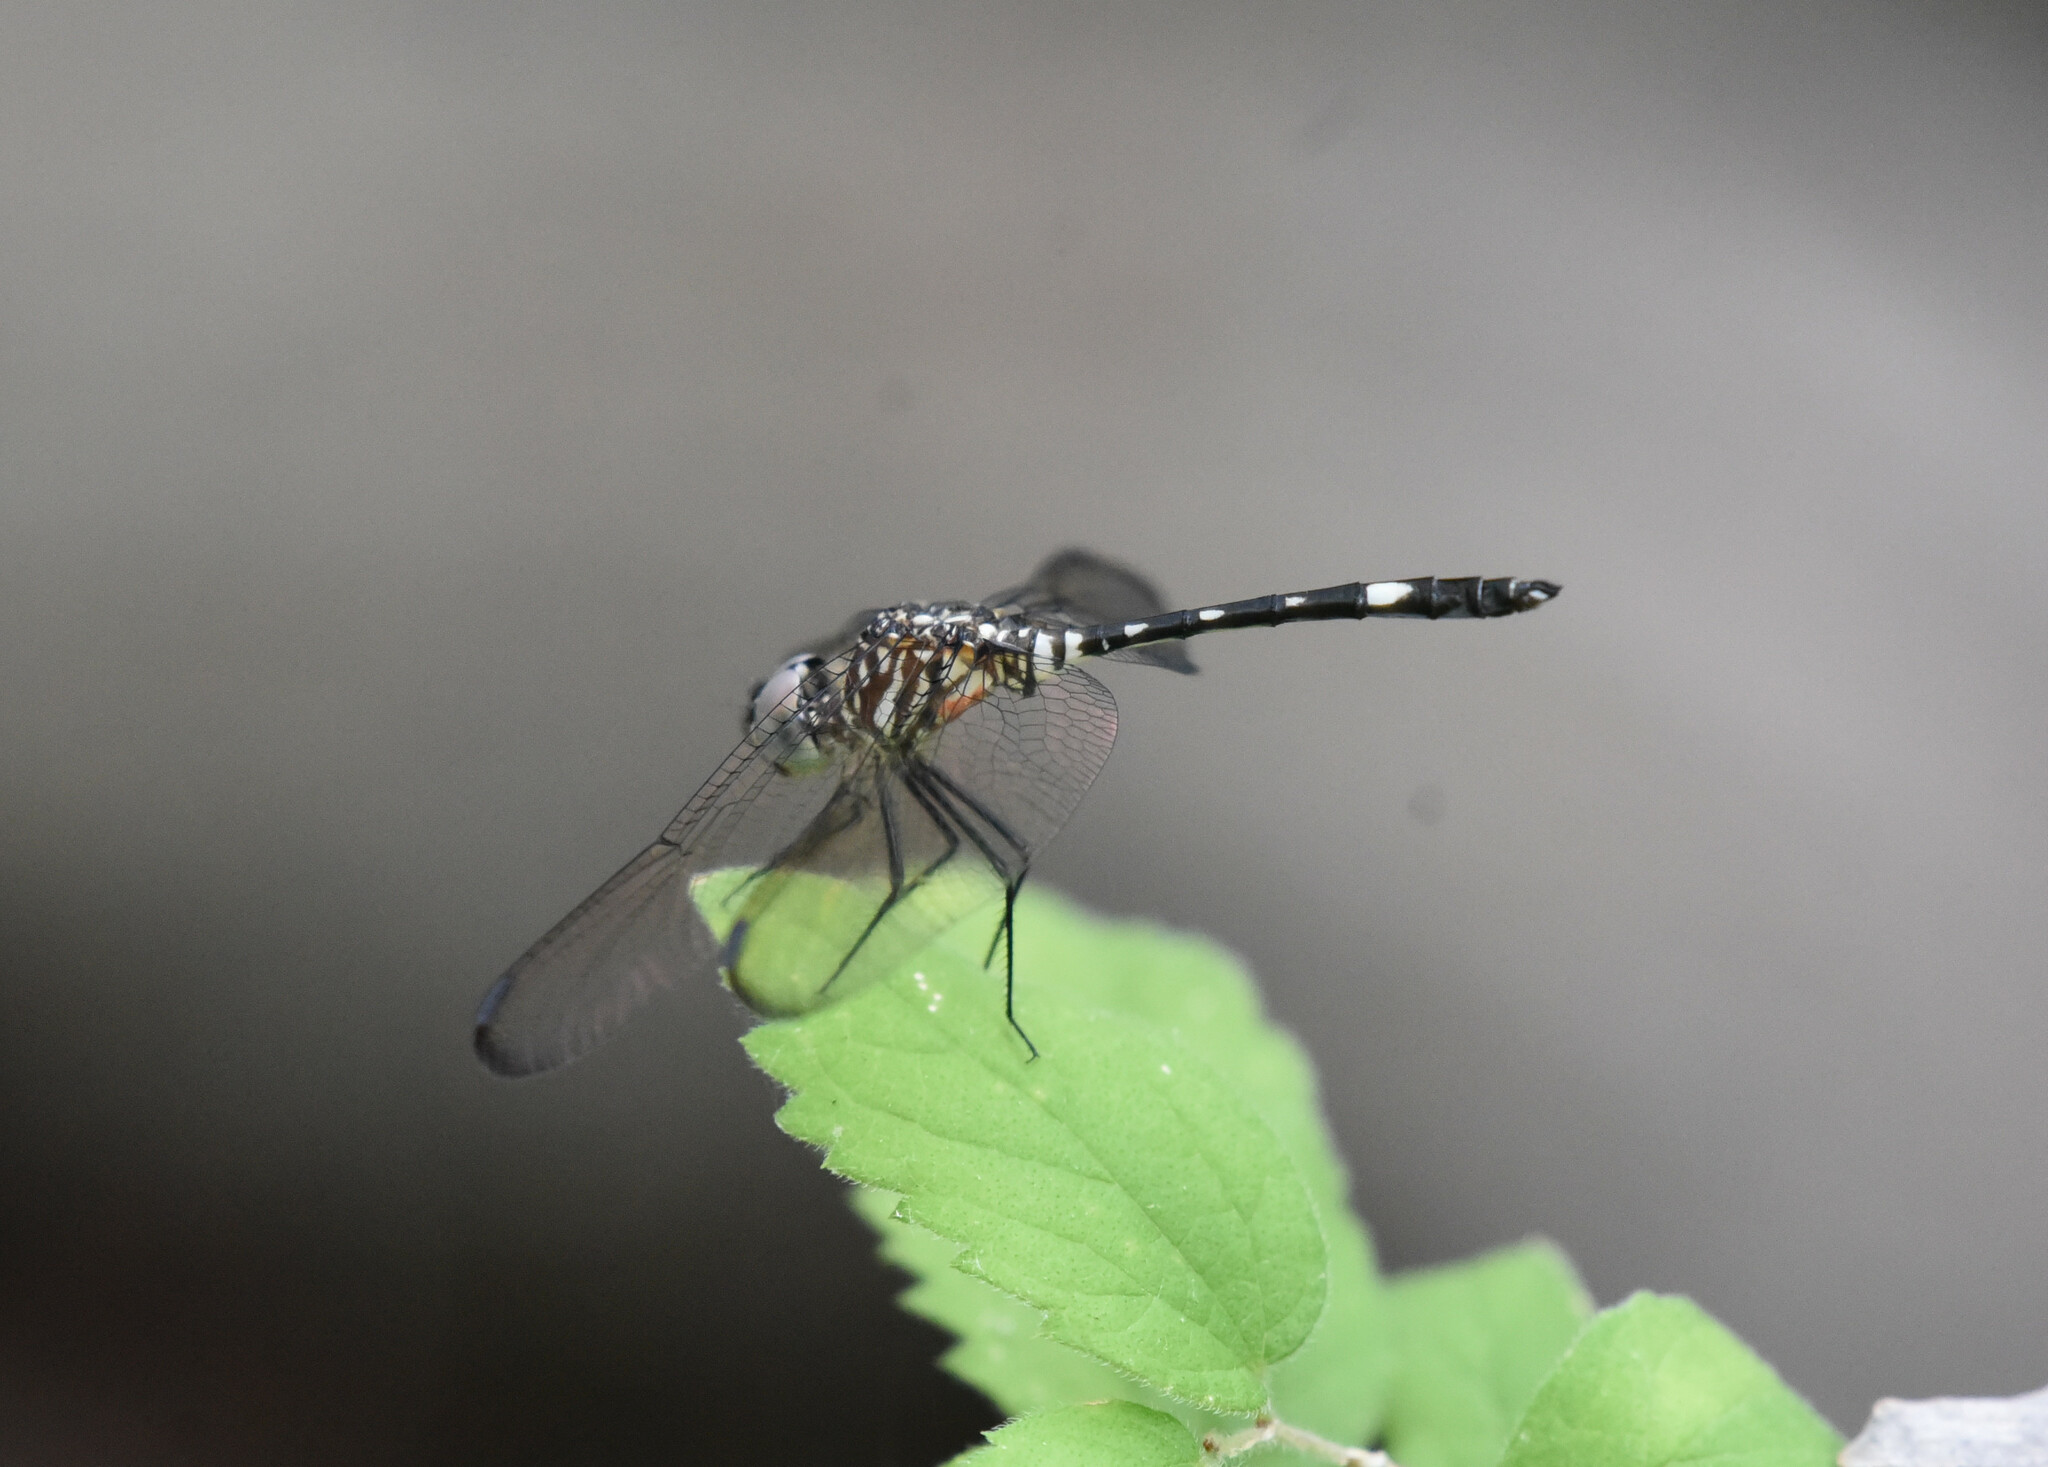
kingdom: Animalia
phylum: Arthropoda
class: Insecta
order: Odonata
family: Libellulidae
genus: Dythemis
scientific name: Dythemis velox
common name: Swift setwing
